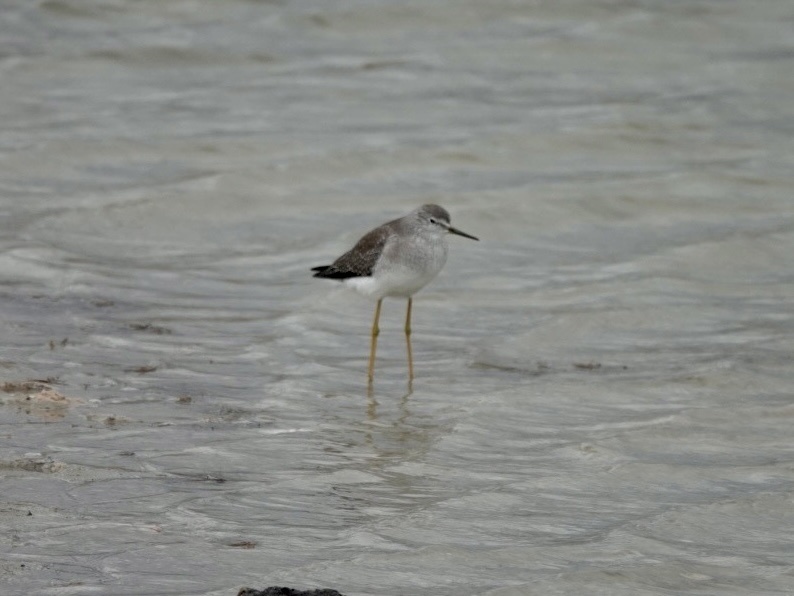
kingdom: Animalia
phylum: Chordata
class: Aves
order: Charadriiformes
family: Scolopacidae
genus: Tringa
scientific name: Tringa flavipes
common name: Lesser yellowlegs
